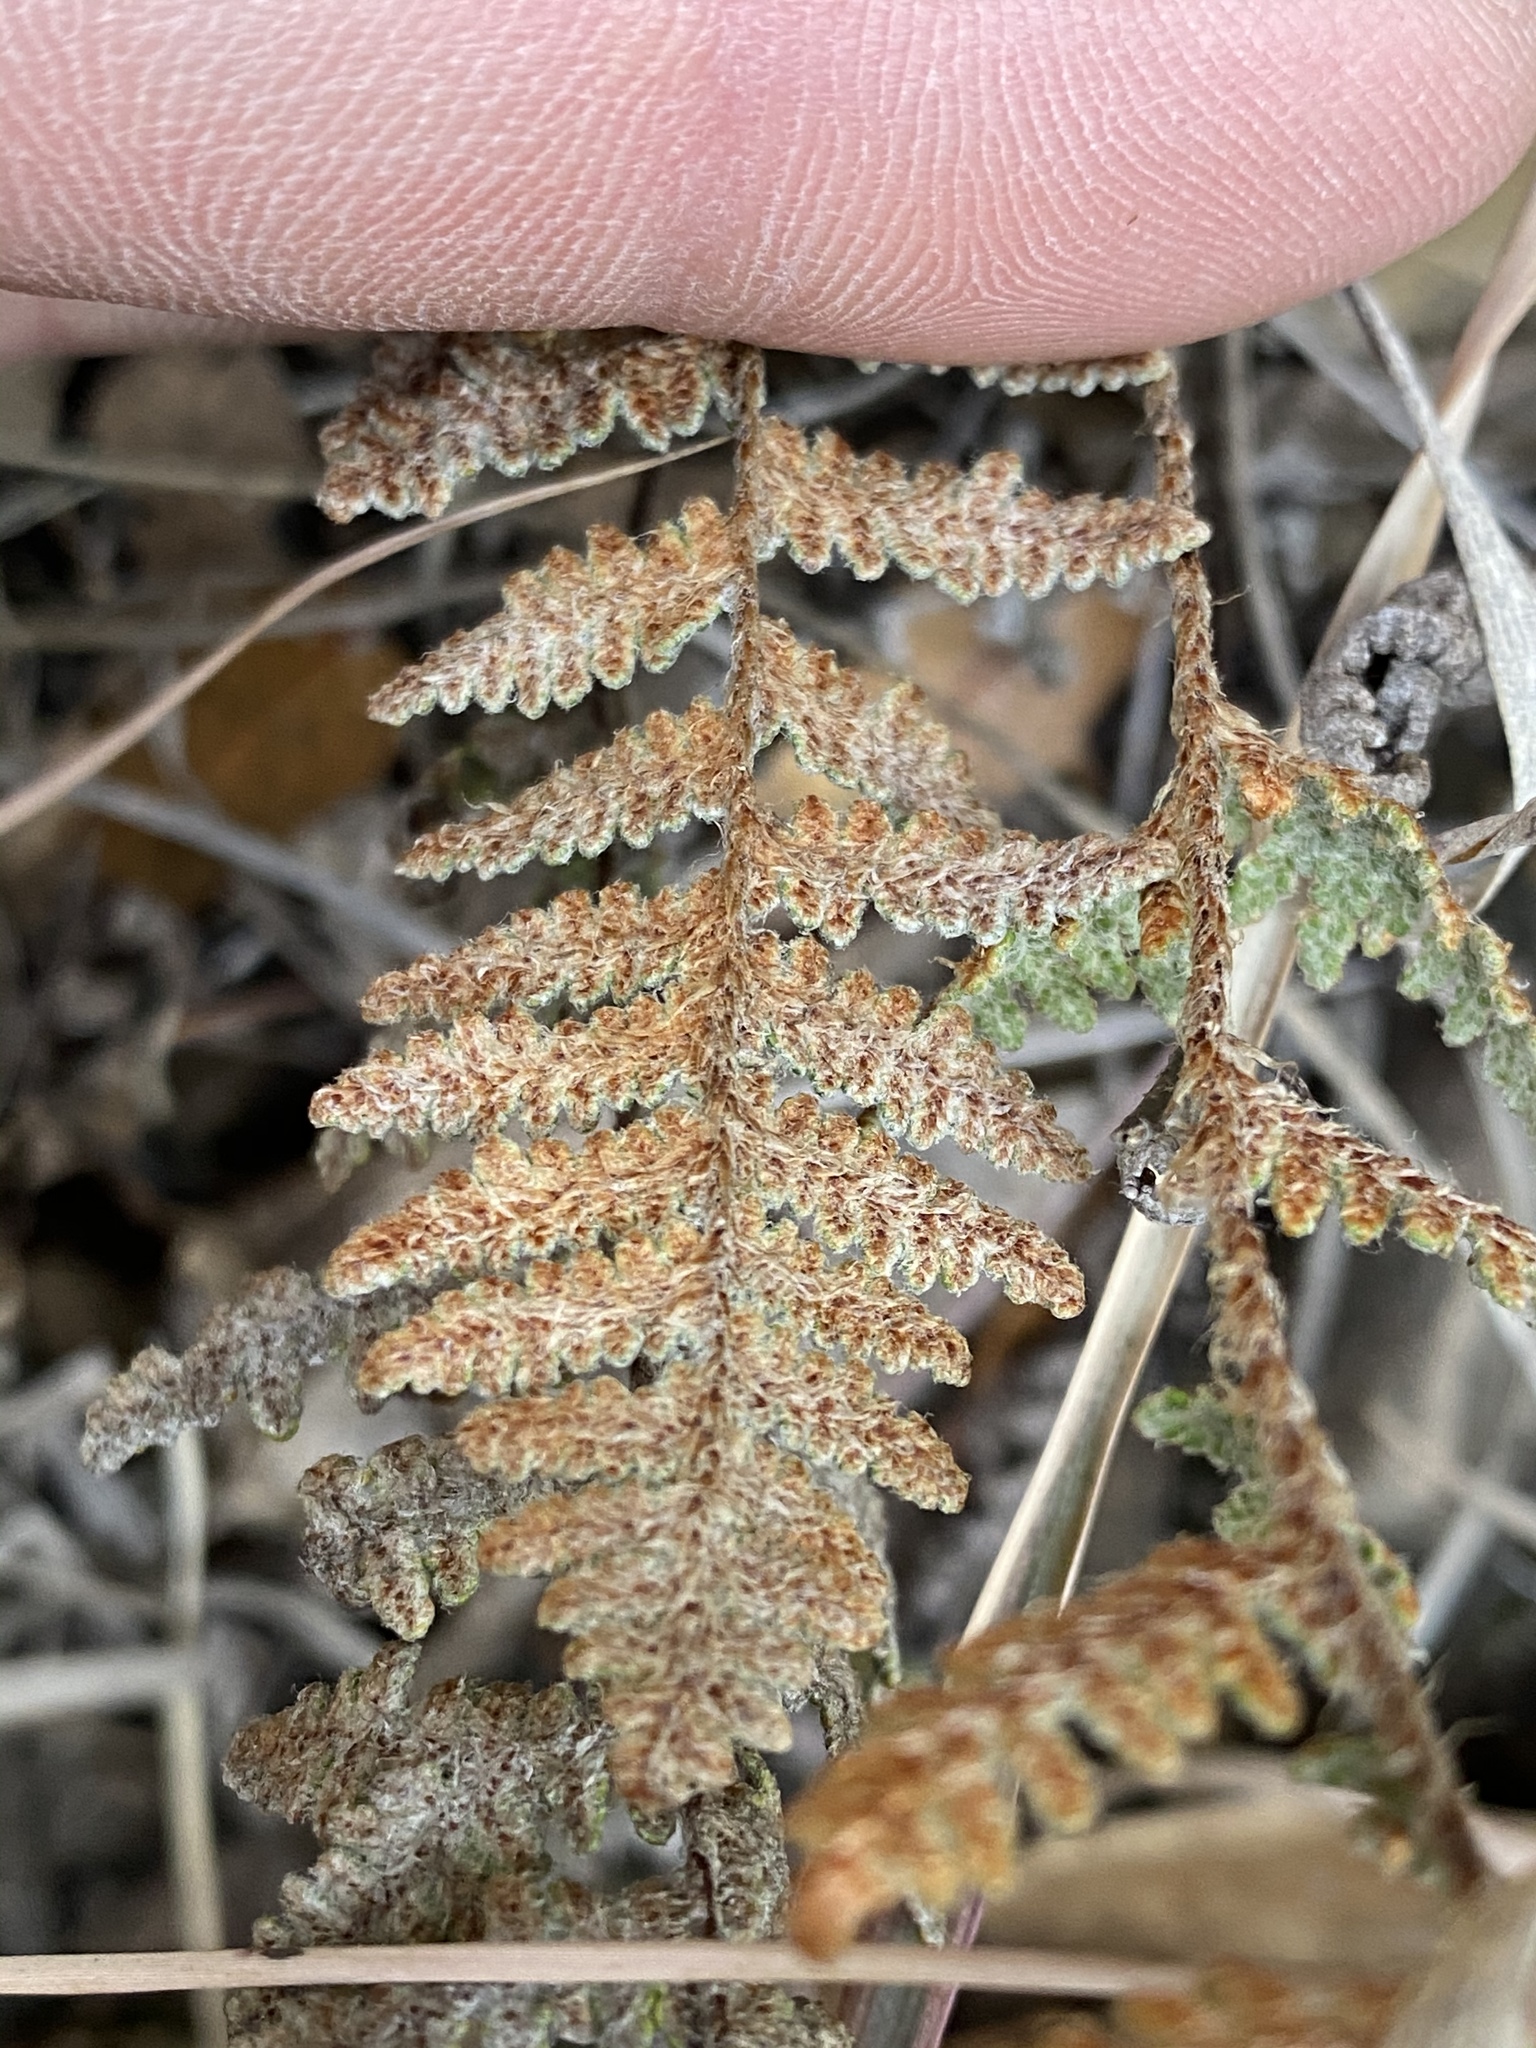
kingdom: Plantae
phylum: Tracheophyta
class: Polypodiopsida
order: Polypodiales
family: Pteridaceae
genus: Myriopteris
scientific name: Myriopteris lindheimeri
